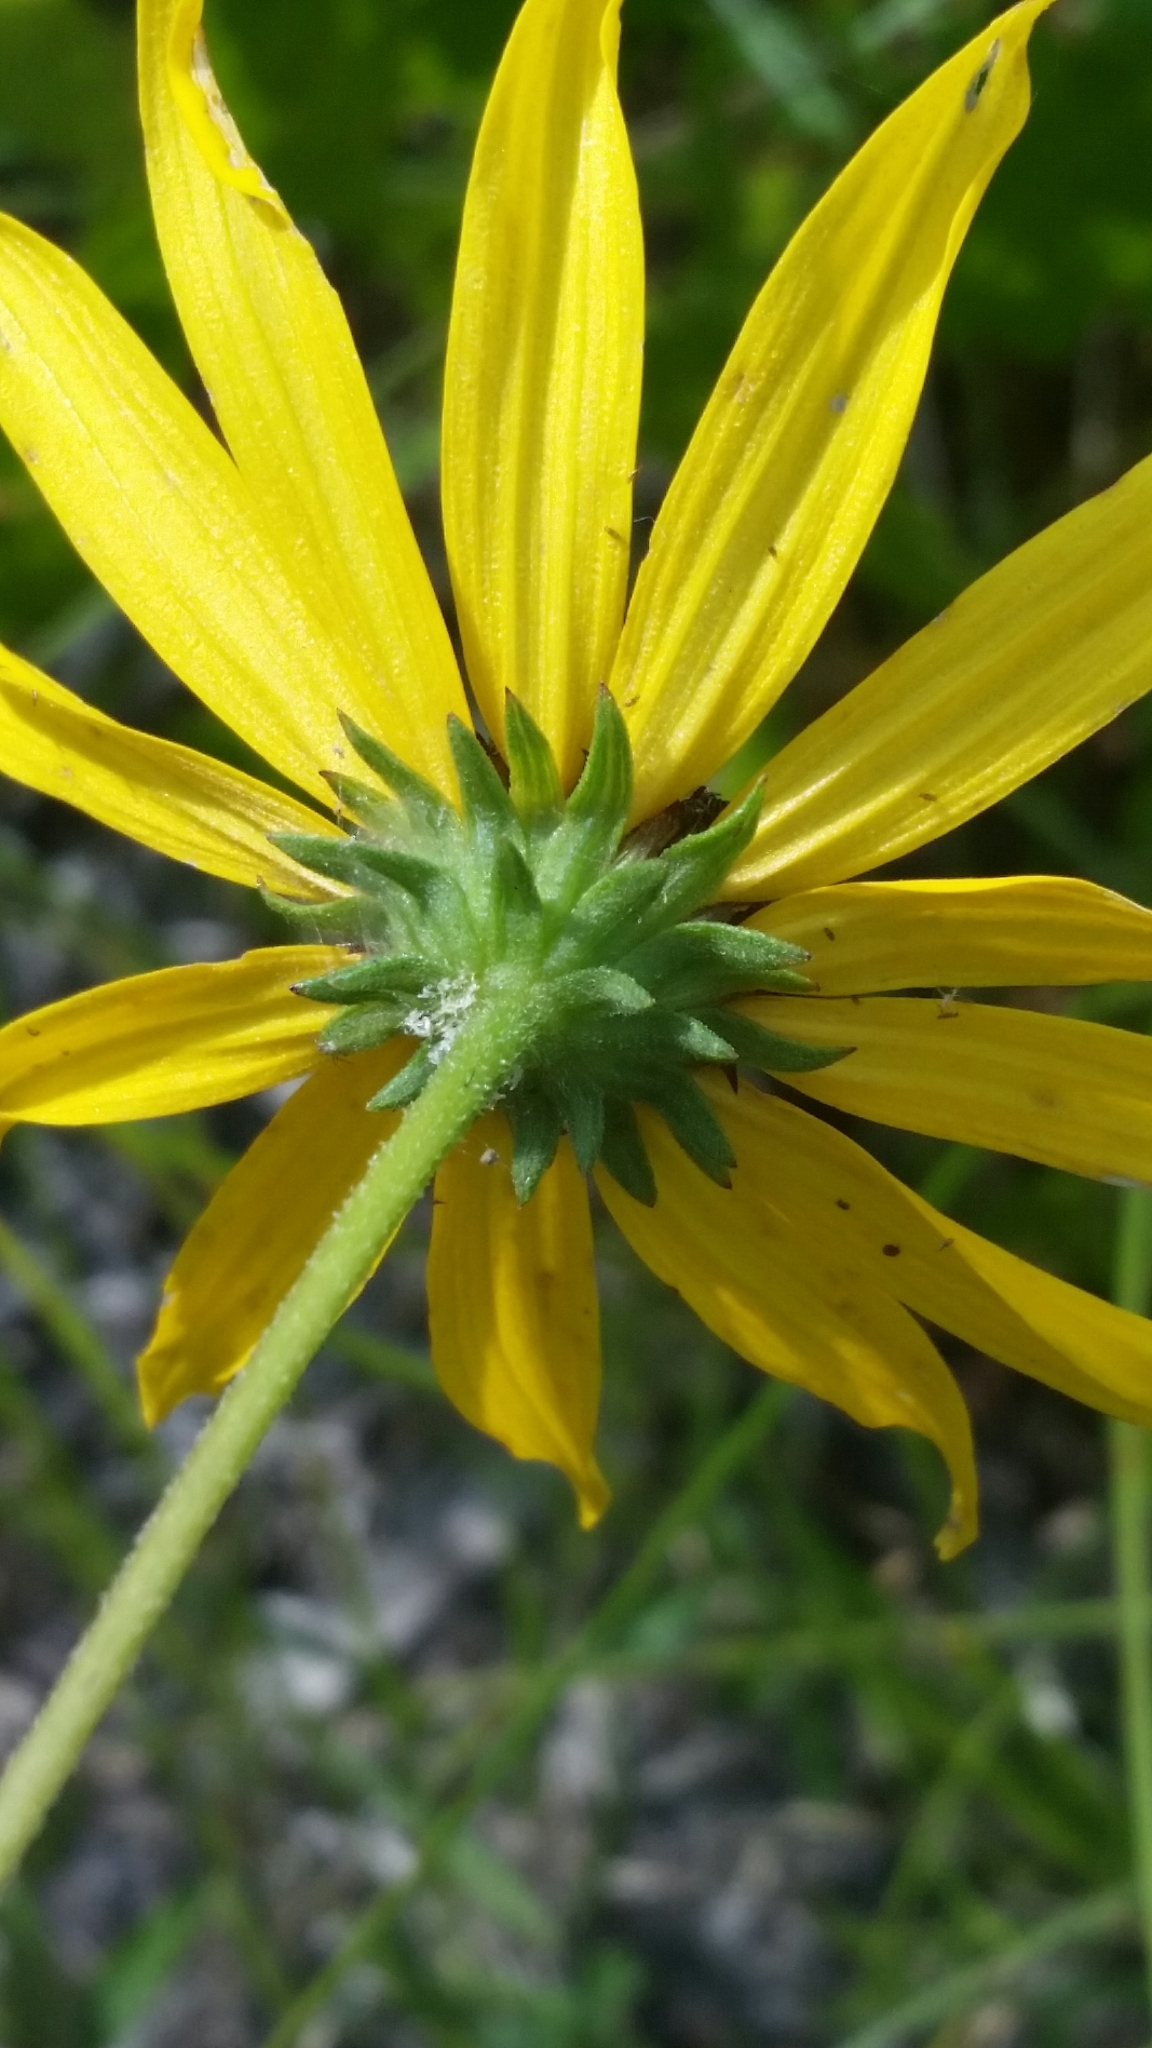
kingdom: Plantae
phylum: Tracheophyta
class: Magnoliopsida
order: Asterales
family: Asteraceae
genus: Helianthus
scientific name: Helianthus angustifolius
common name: Swamp sunflower
